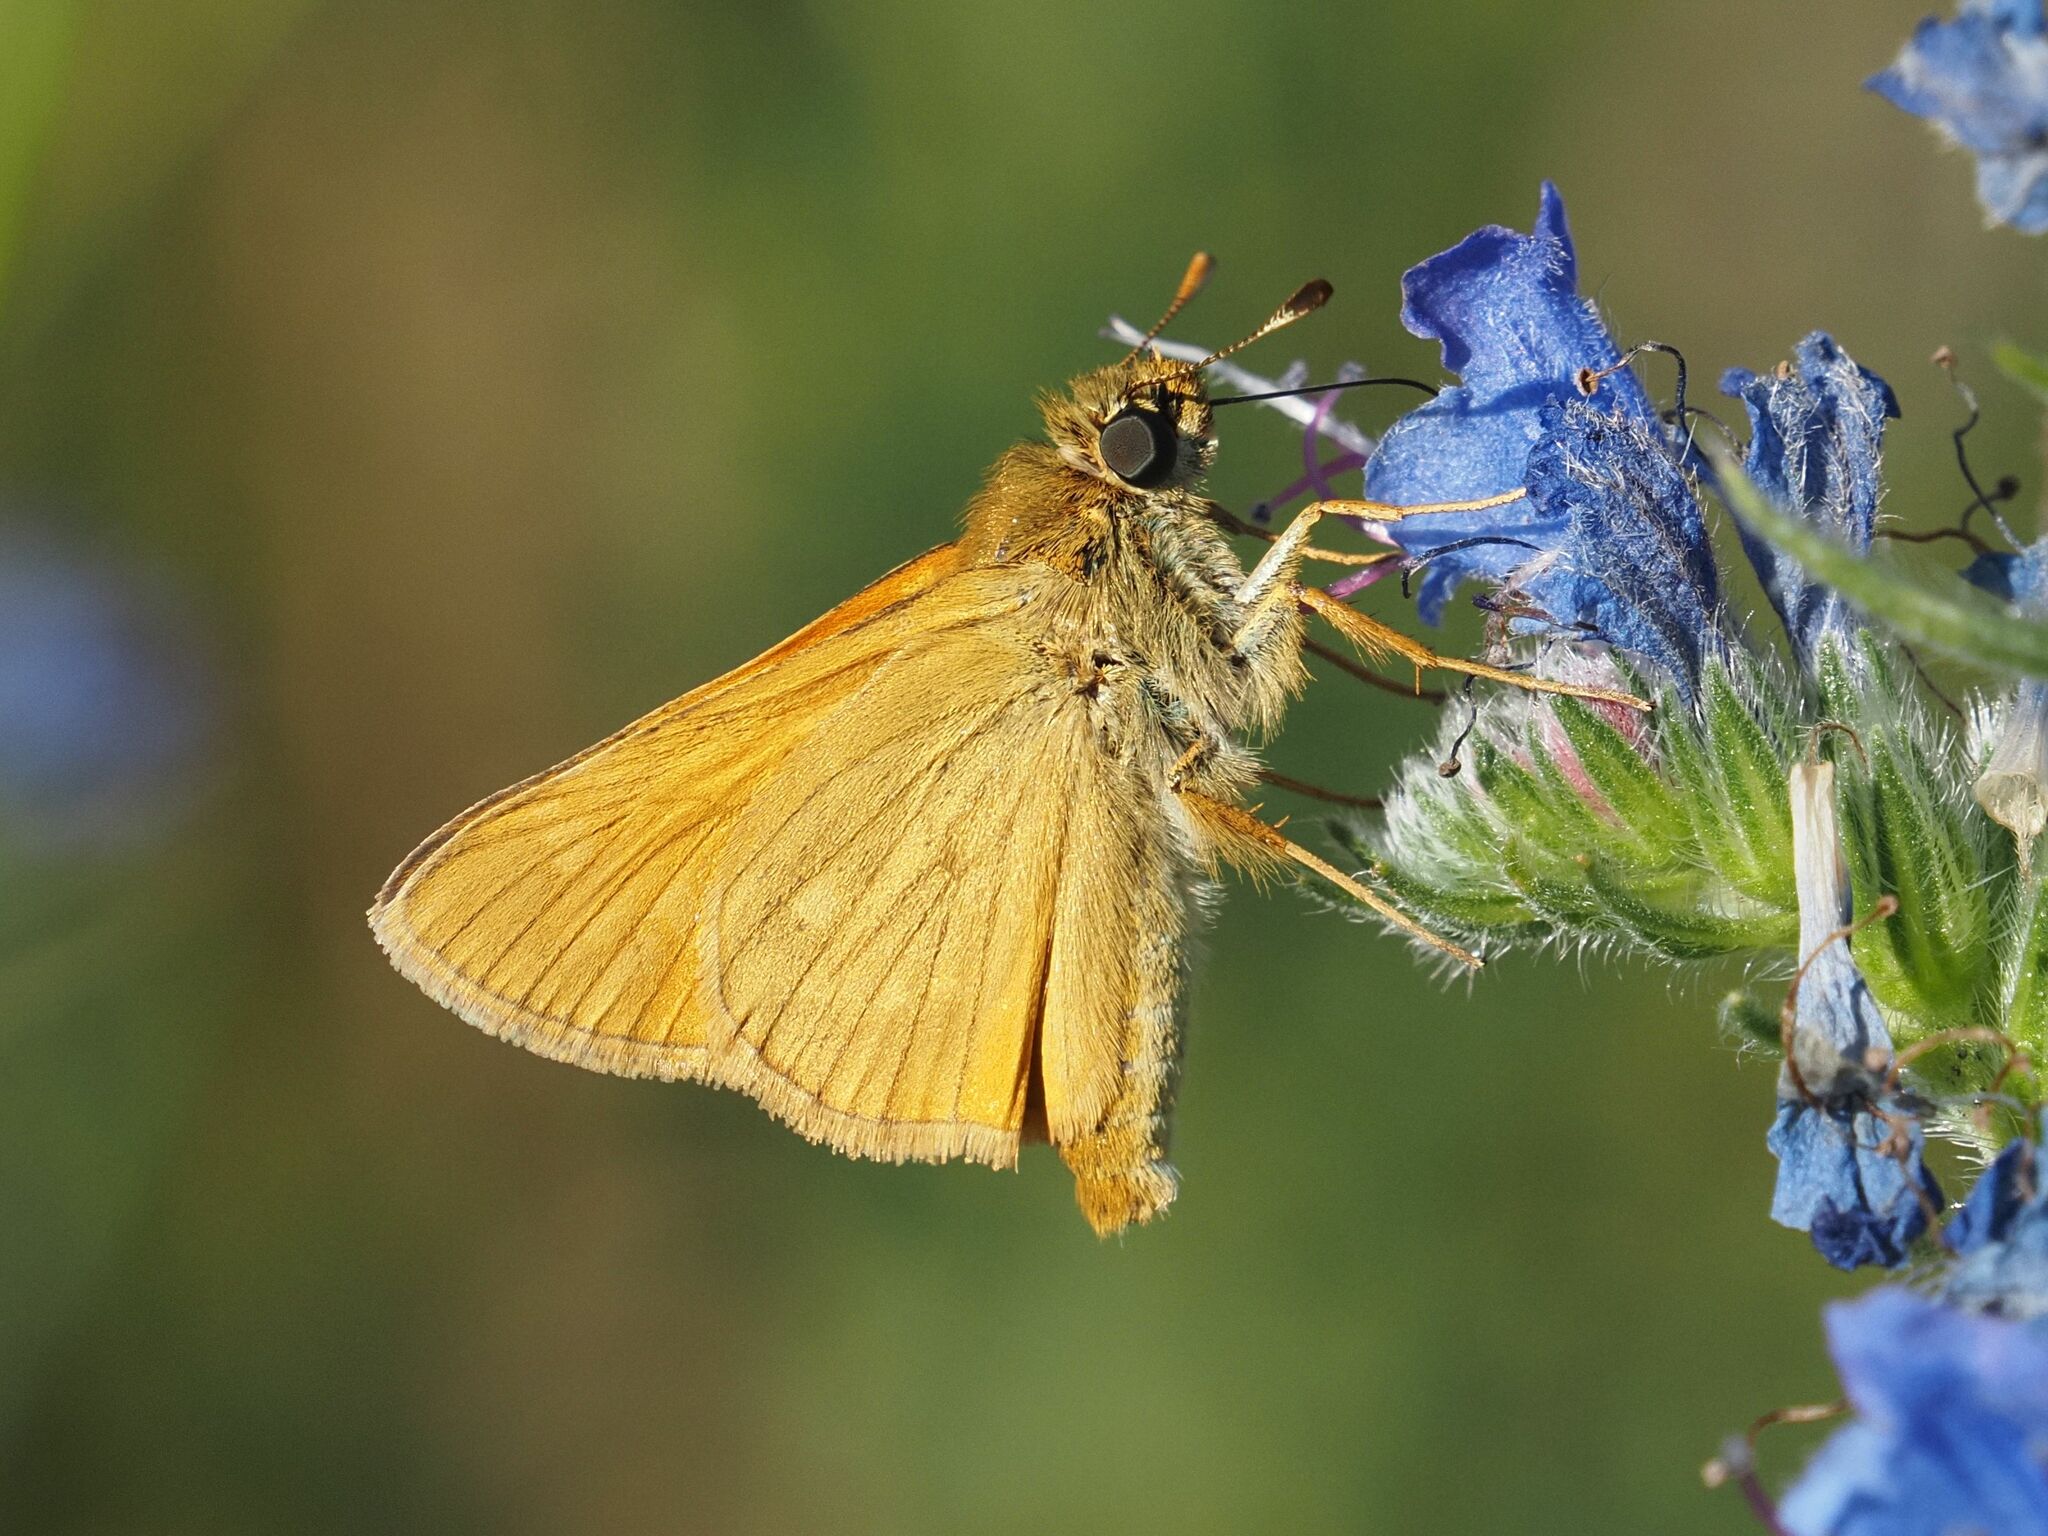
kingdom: Animalia
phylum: Arthropoda
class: Insecta
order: Lepidoptera
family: Hesperiidae
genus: Ochlodes
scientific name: Ochlodes venata
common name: Large skipper
